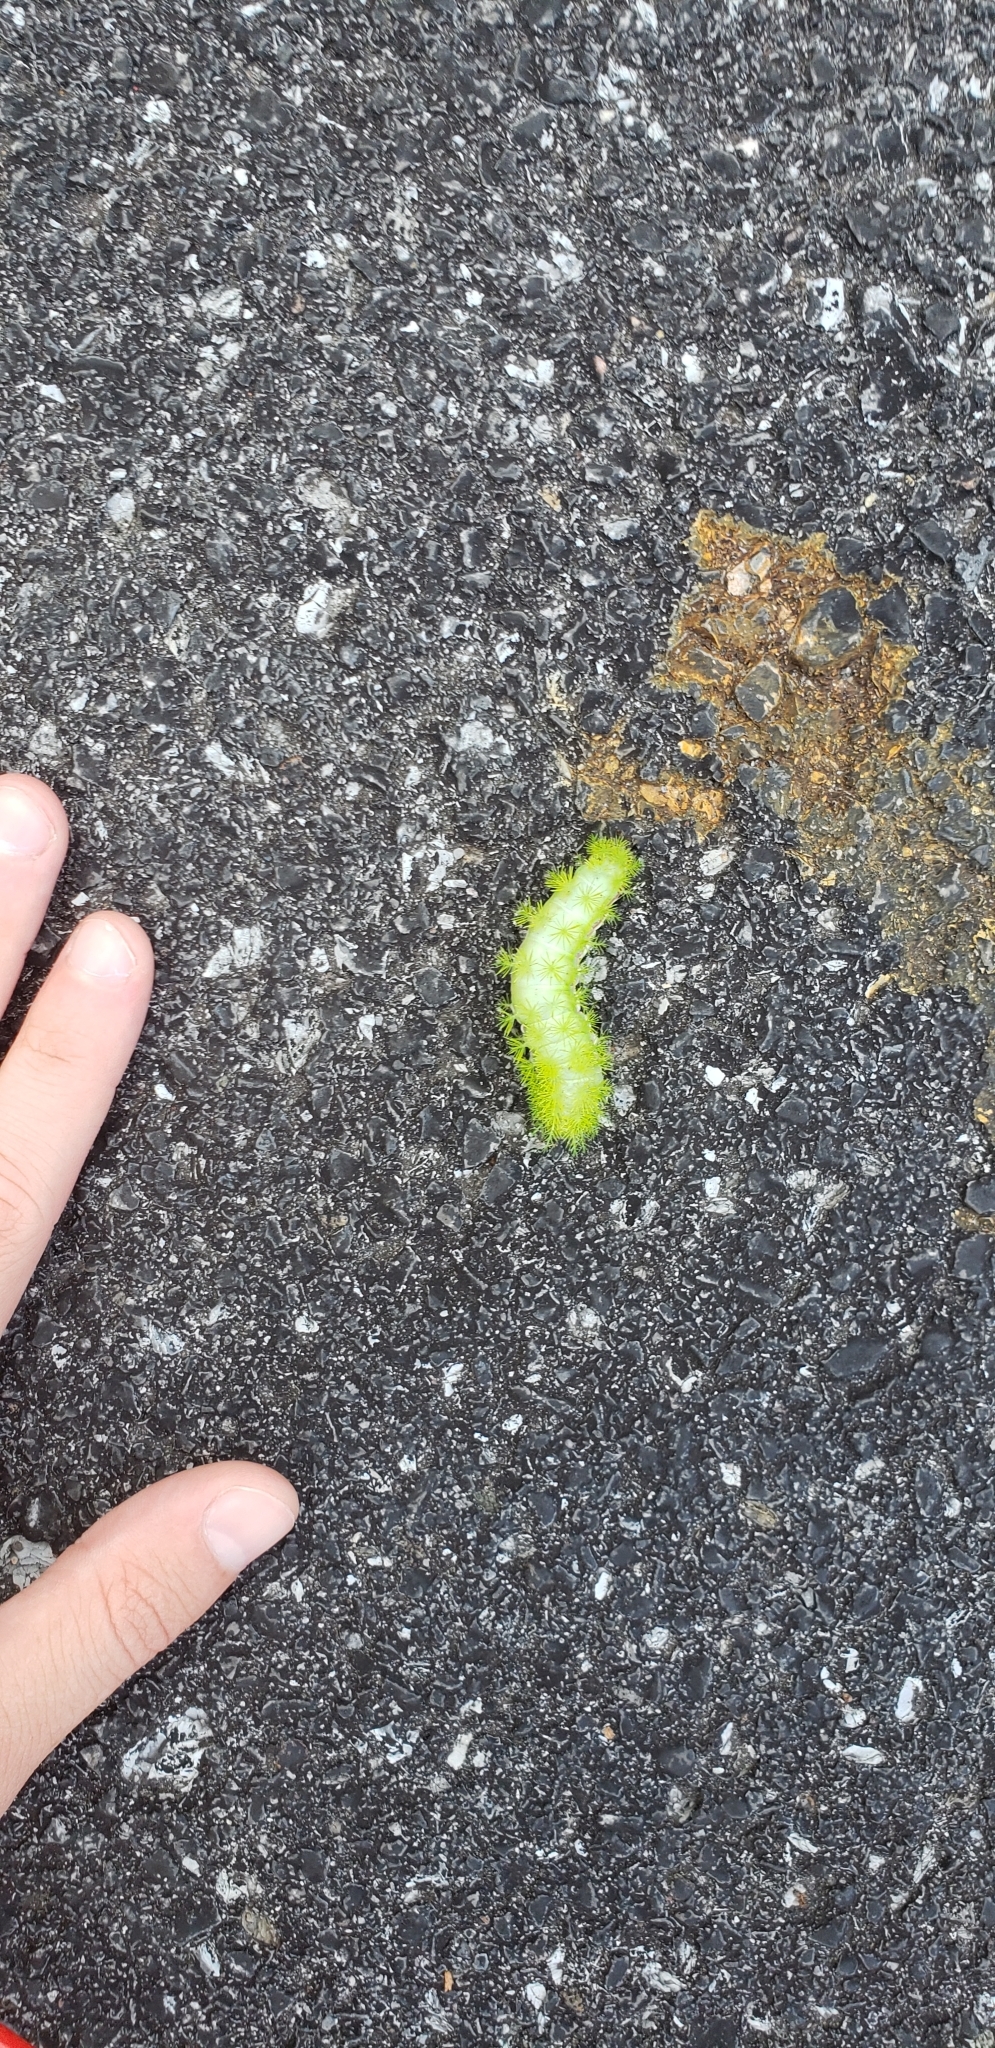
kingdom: Animalia
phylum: Arthropoda
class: Insecta
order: Lepidoptera
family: Saturniidae
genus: Automeris
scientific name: Automeris io
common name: Io moth
